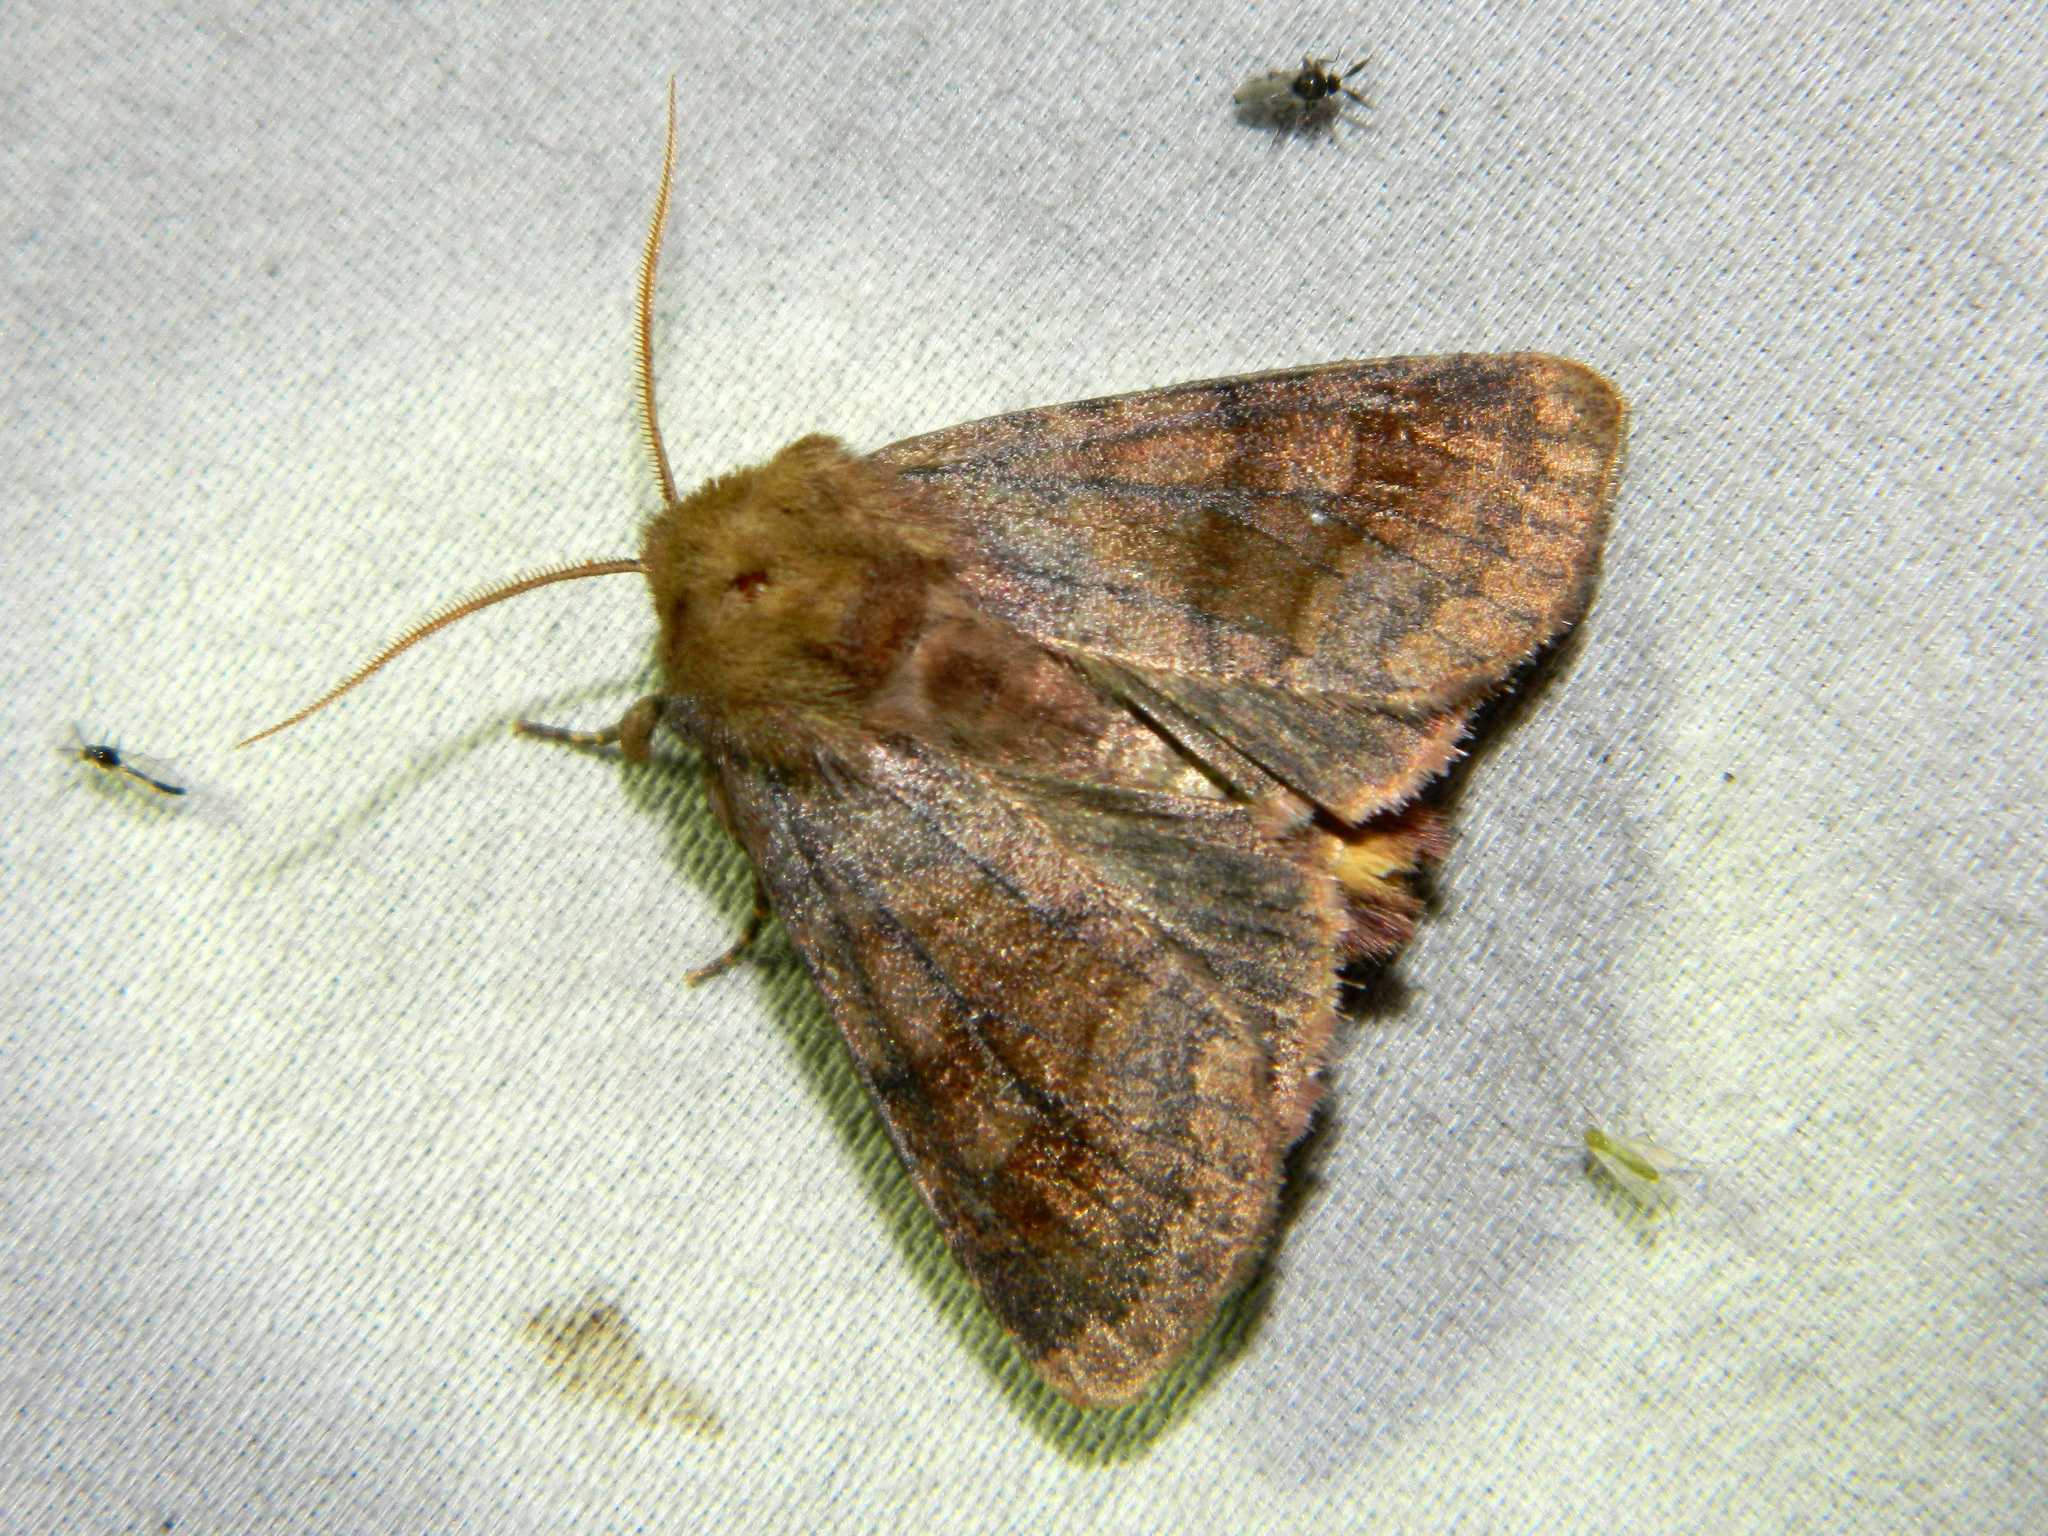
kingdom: Animalia
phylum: Arthropoda
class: Insecta
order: Lepidoptera
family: Noctuidae
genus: Nephelodes
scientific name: Nephelodes minians
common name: Bronzed cutworm
